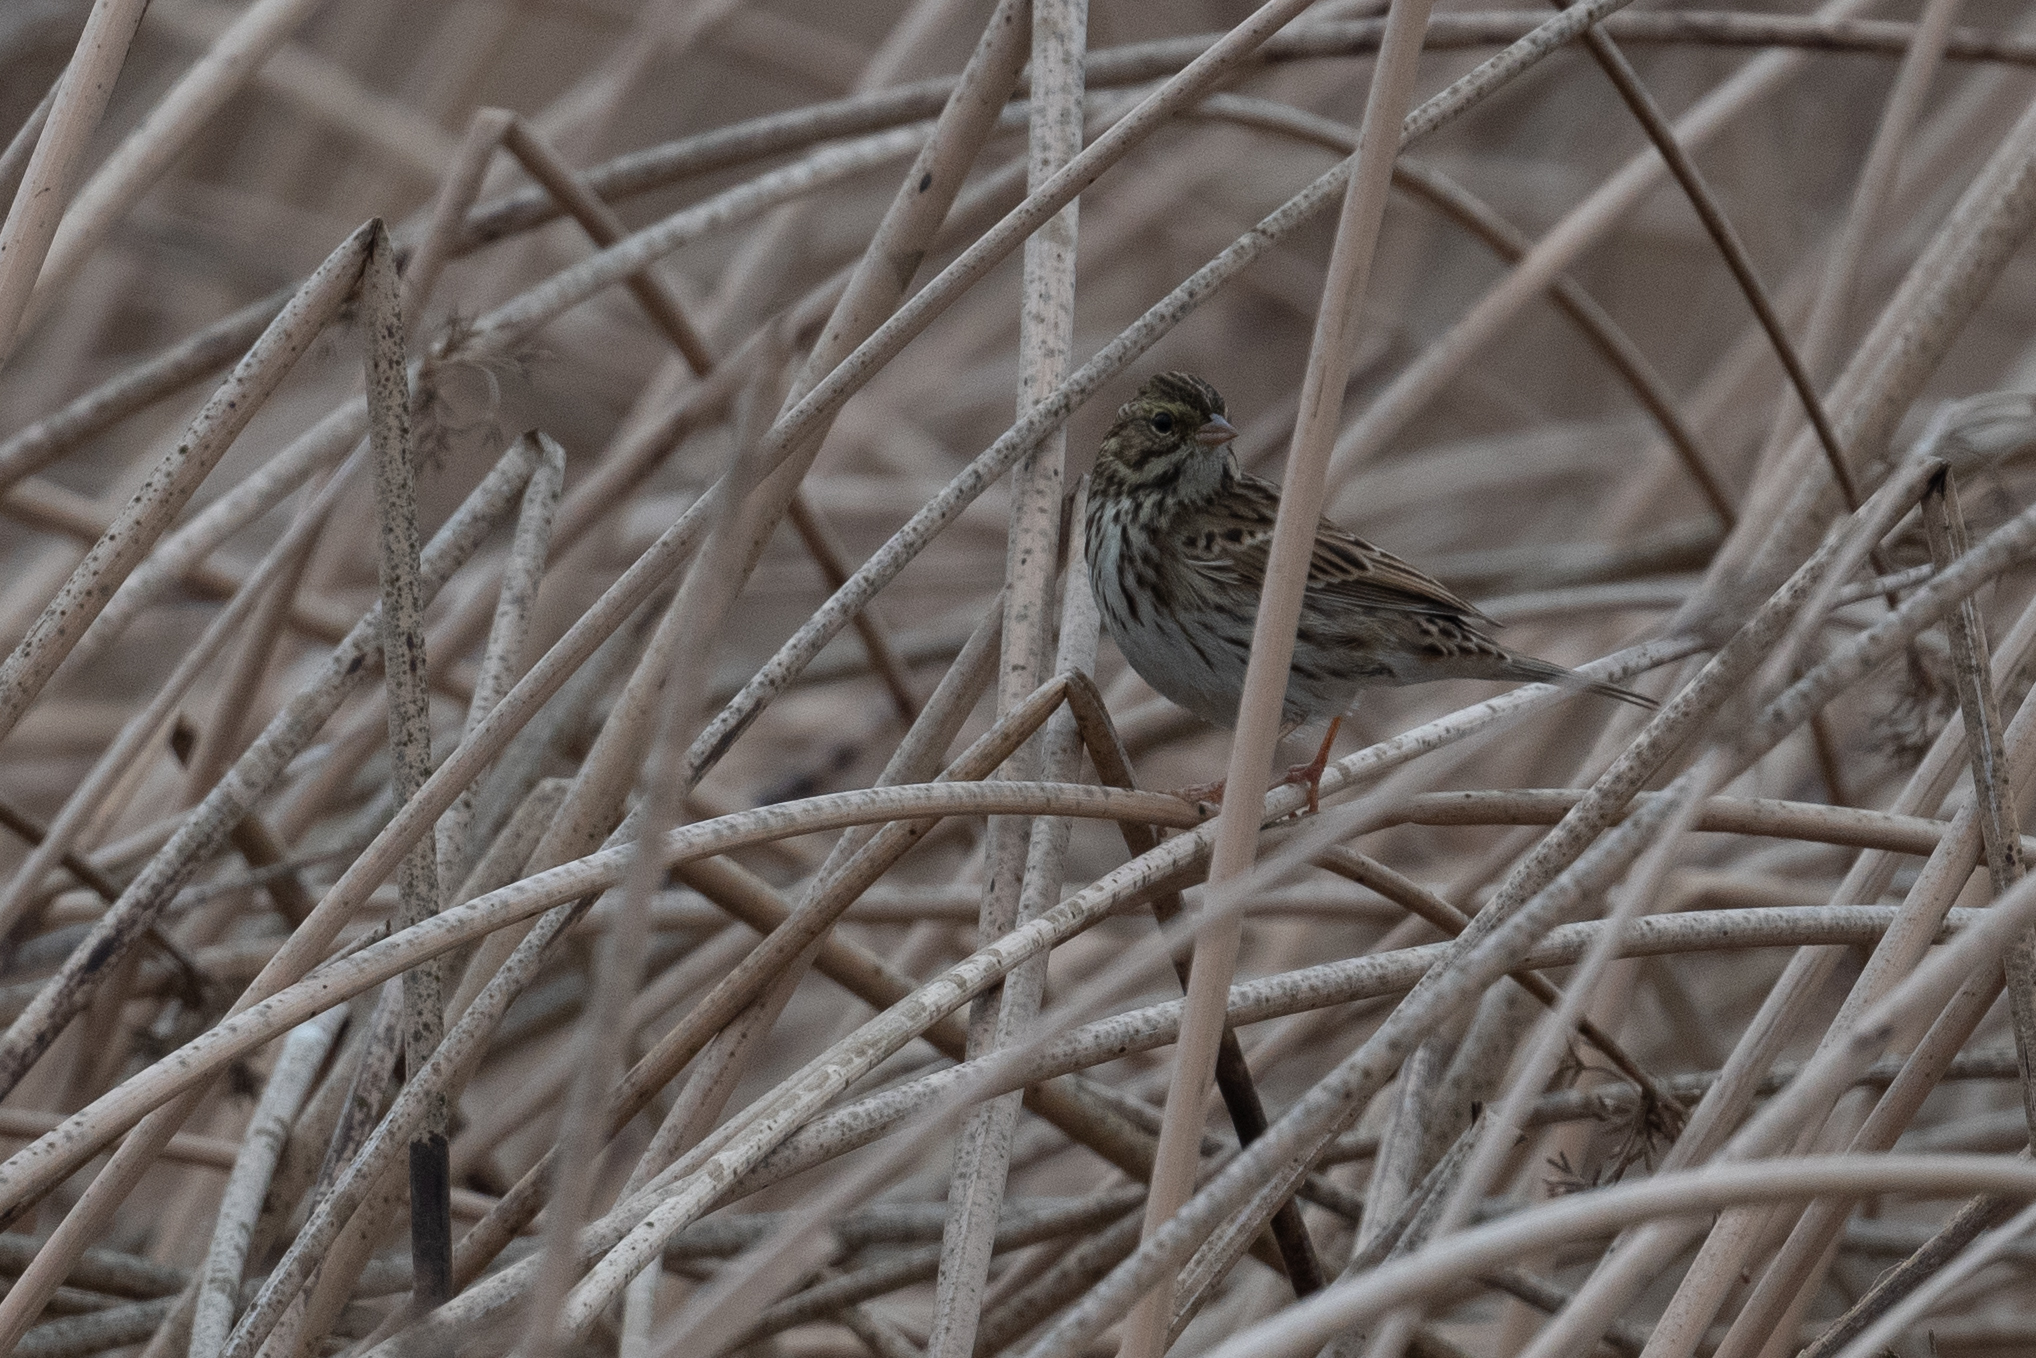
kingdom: Animalia
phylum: Chordata
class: Aves
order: Passeriformes
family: Passerellidae
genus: Passerculus
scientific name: Passerculus sandwichensis
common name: Savannah sparrow
